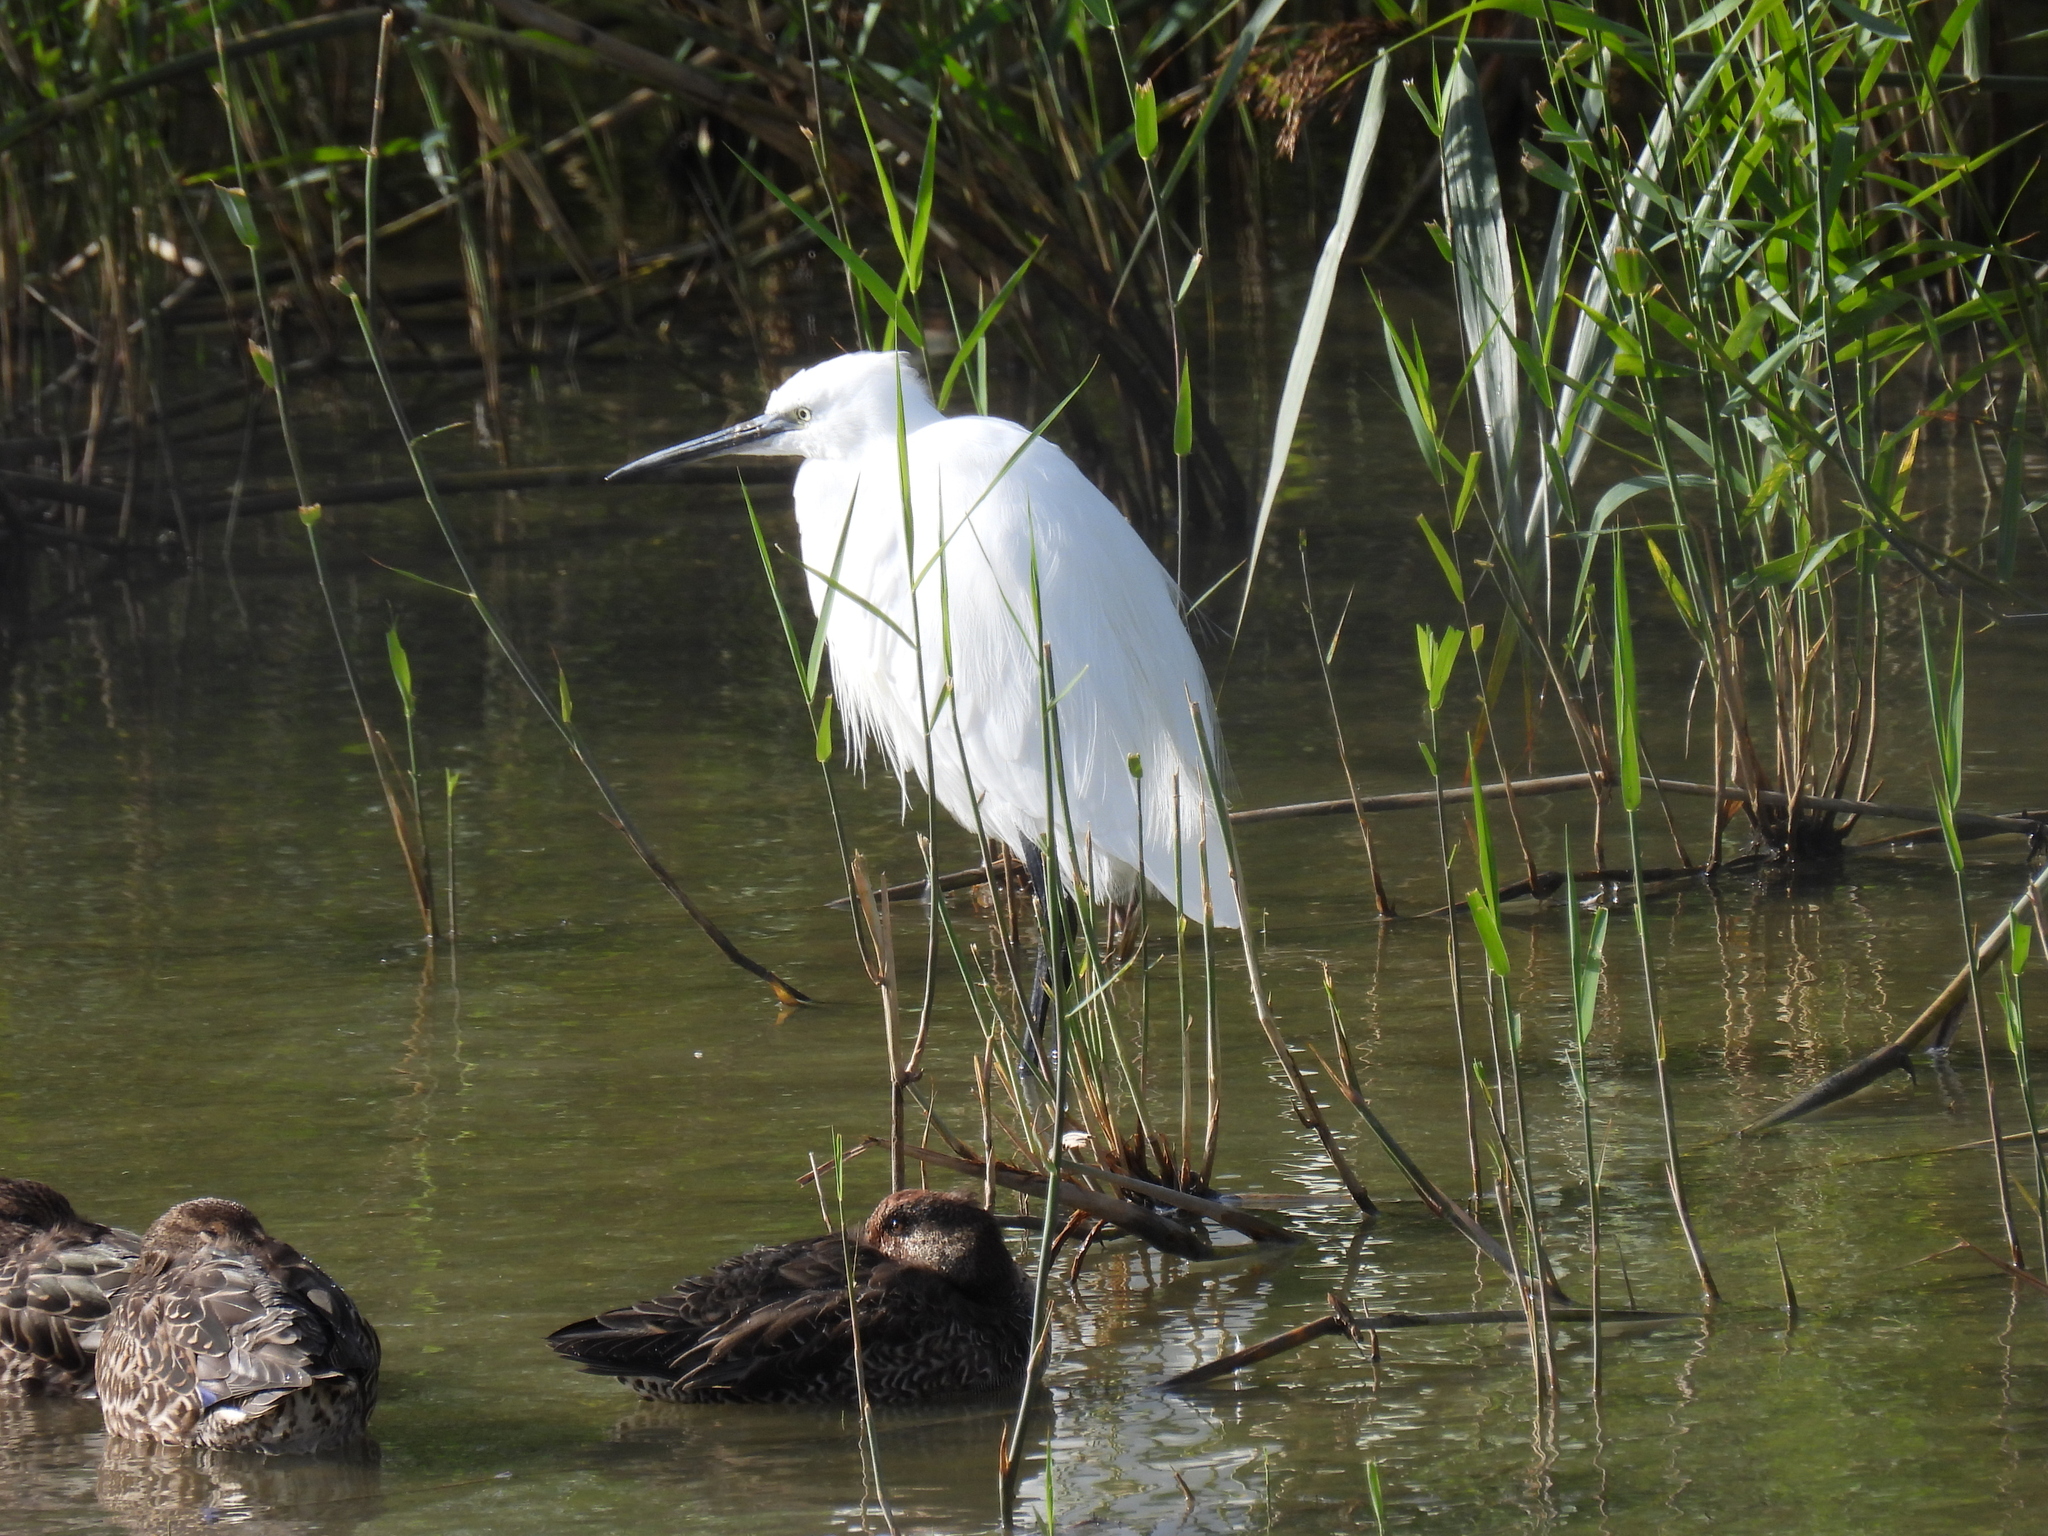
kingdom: Animalia
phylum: Chordata
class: Aves
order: Pelecaniformes
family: Ardeidae
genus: Egretta
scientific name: Egretta garzetta
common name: Little egret
